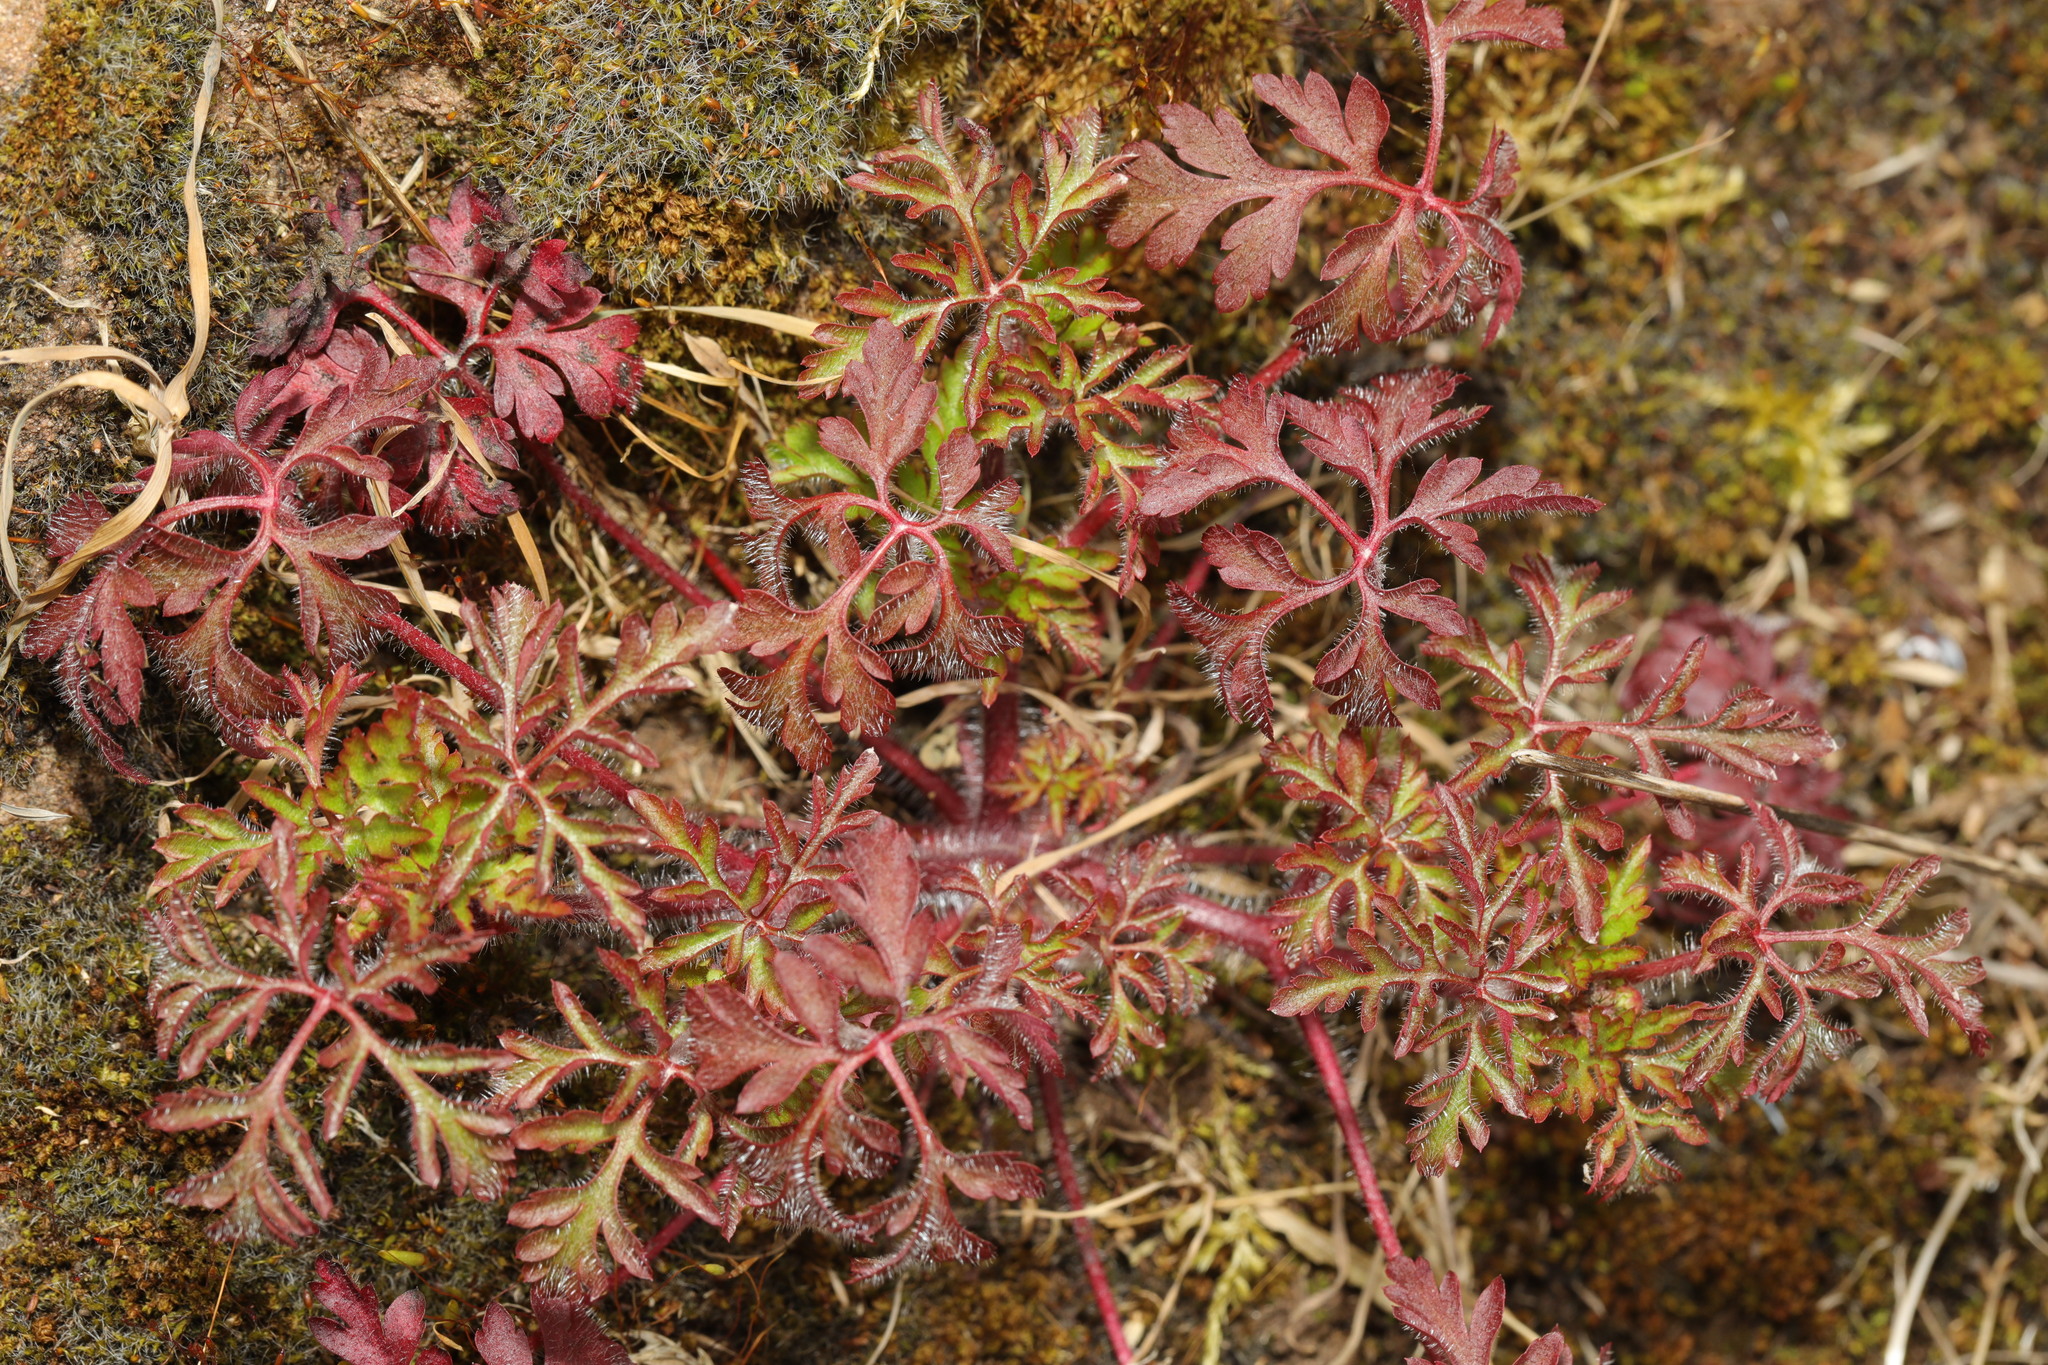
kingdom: Plantae
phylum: Tracheophyta
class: Magnoliopsida
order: Geraniales
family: Geraniaceae
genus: Geranium
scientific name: Geranium robertianum
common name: Herb-robert
